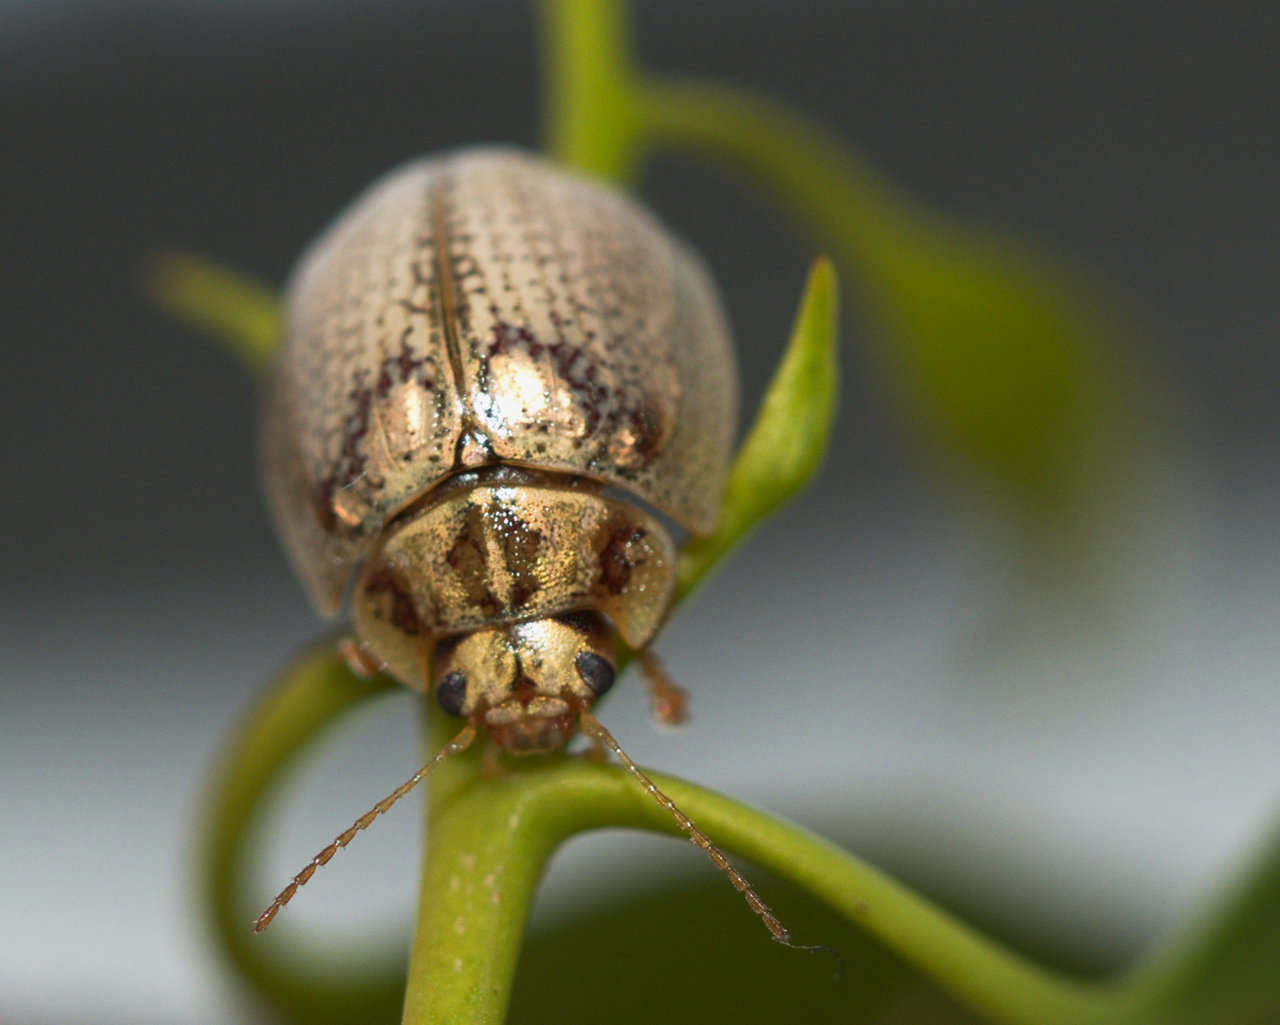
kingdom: Animalia
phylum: Arthropoda
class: Insecta
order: Coleoptera
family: Chrysomelidae
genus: Paropsisterna
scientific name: Paropsisterna
